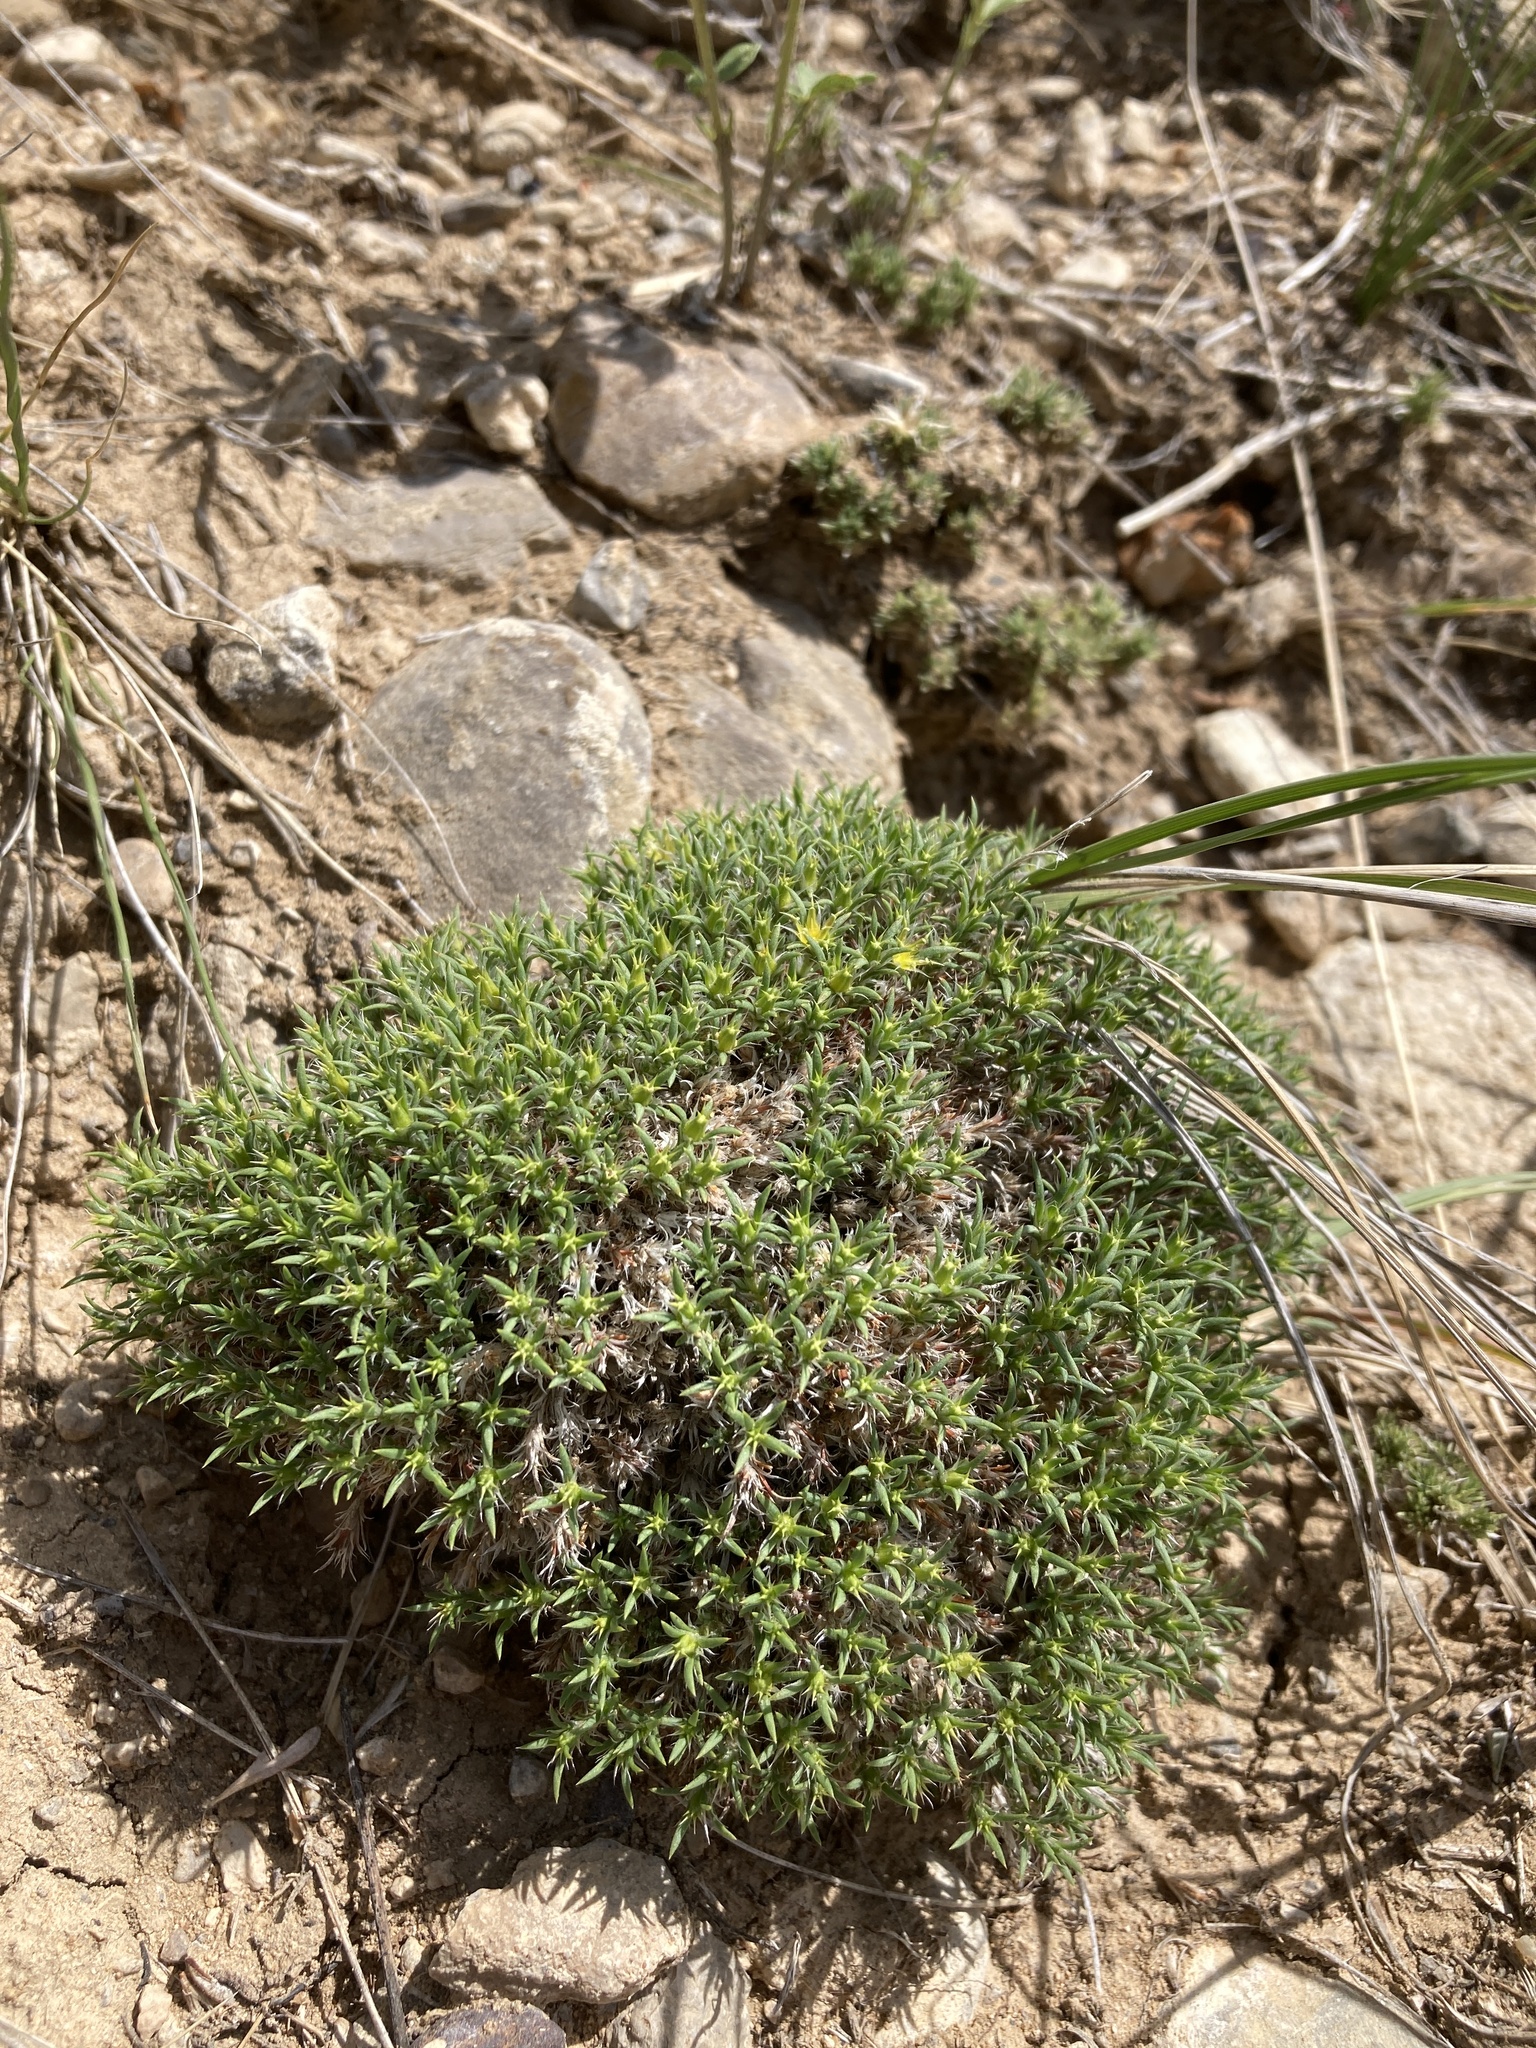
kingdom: Plantae
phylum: Tracheophyta
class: Magnoliopsida
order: Caryophyllales
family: Caryophyllaceae
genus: Paronychia
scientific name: Paronychia sessiliflora
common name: Creeping nailwort
